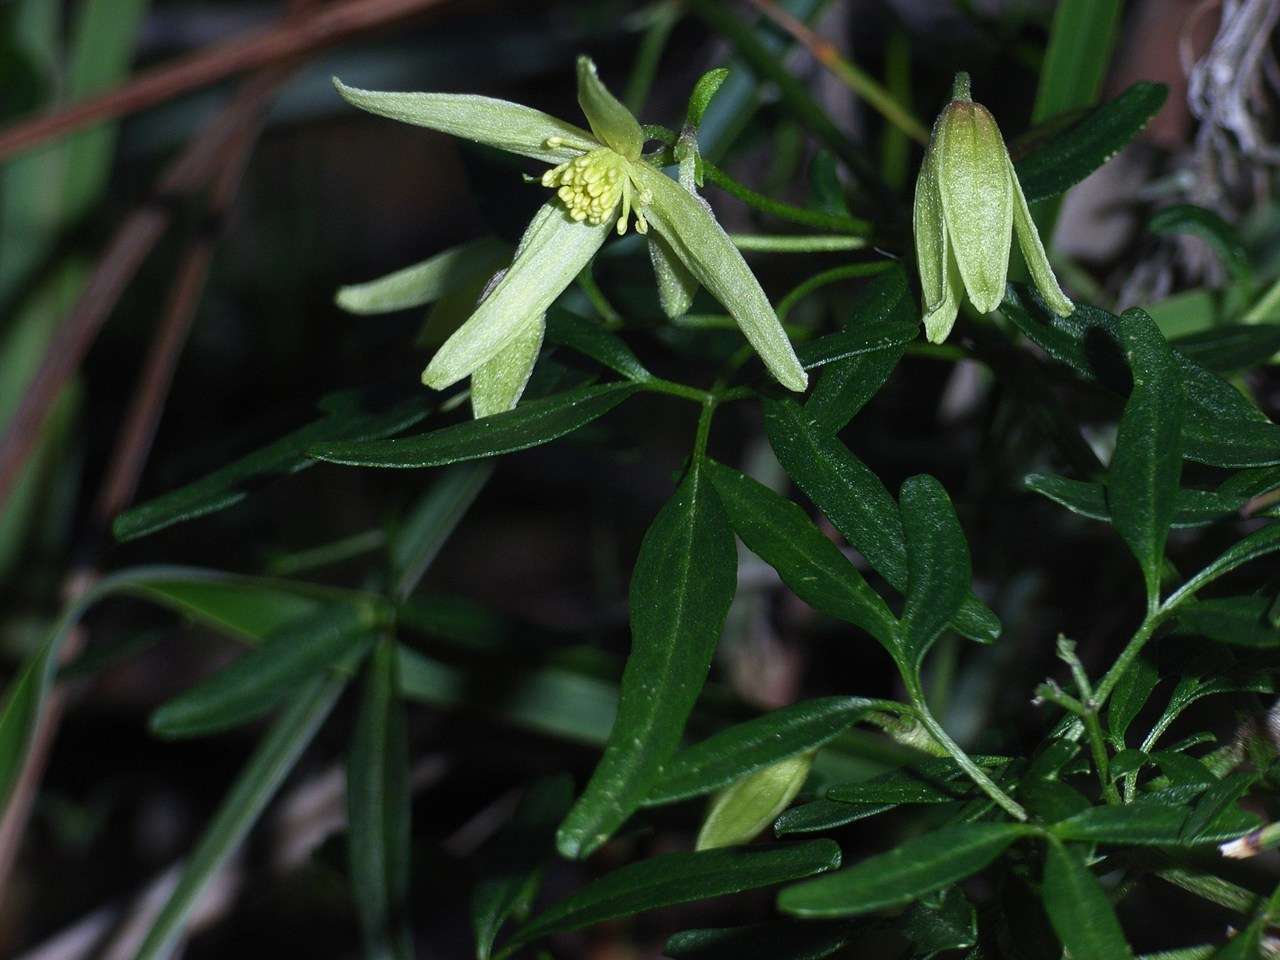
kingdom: Plantae
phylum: Tracheophyta
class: Magnoliopsida
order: Ranunculales
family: Ranunculaceae
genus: Clematis
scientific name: Clematis microphylla
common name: Headachevine
